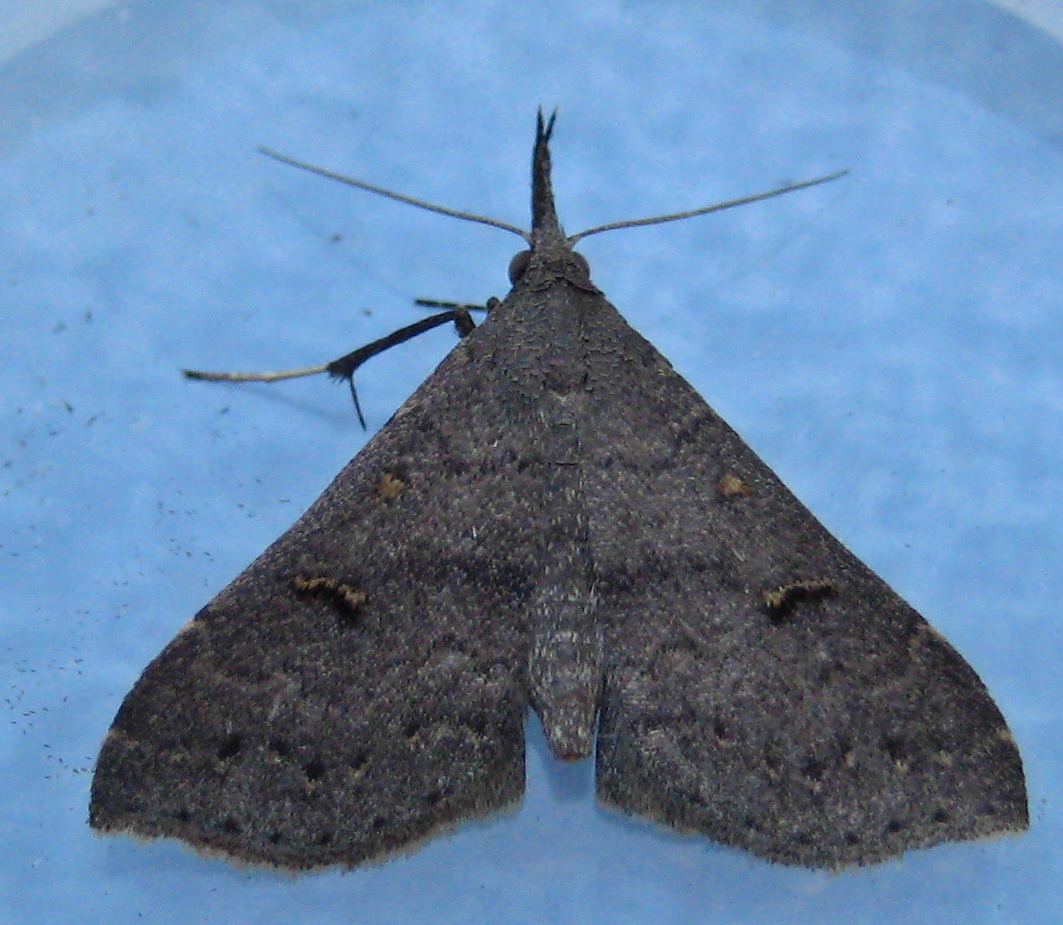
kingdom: Animalia
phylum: Arthropoda
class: Insecta
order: Lepidoptera
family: Erebidae
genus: Renia
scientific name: Renia adspergillus
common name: Speckled renia moth
